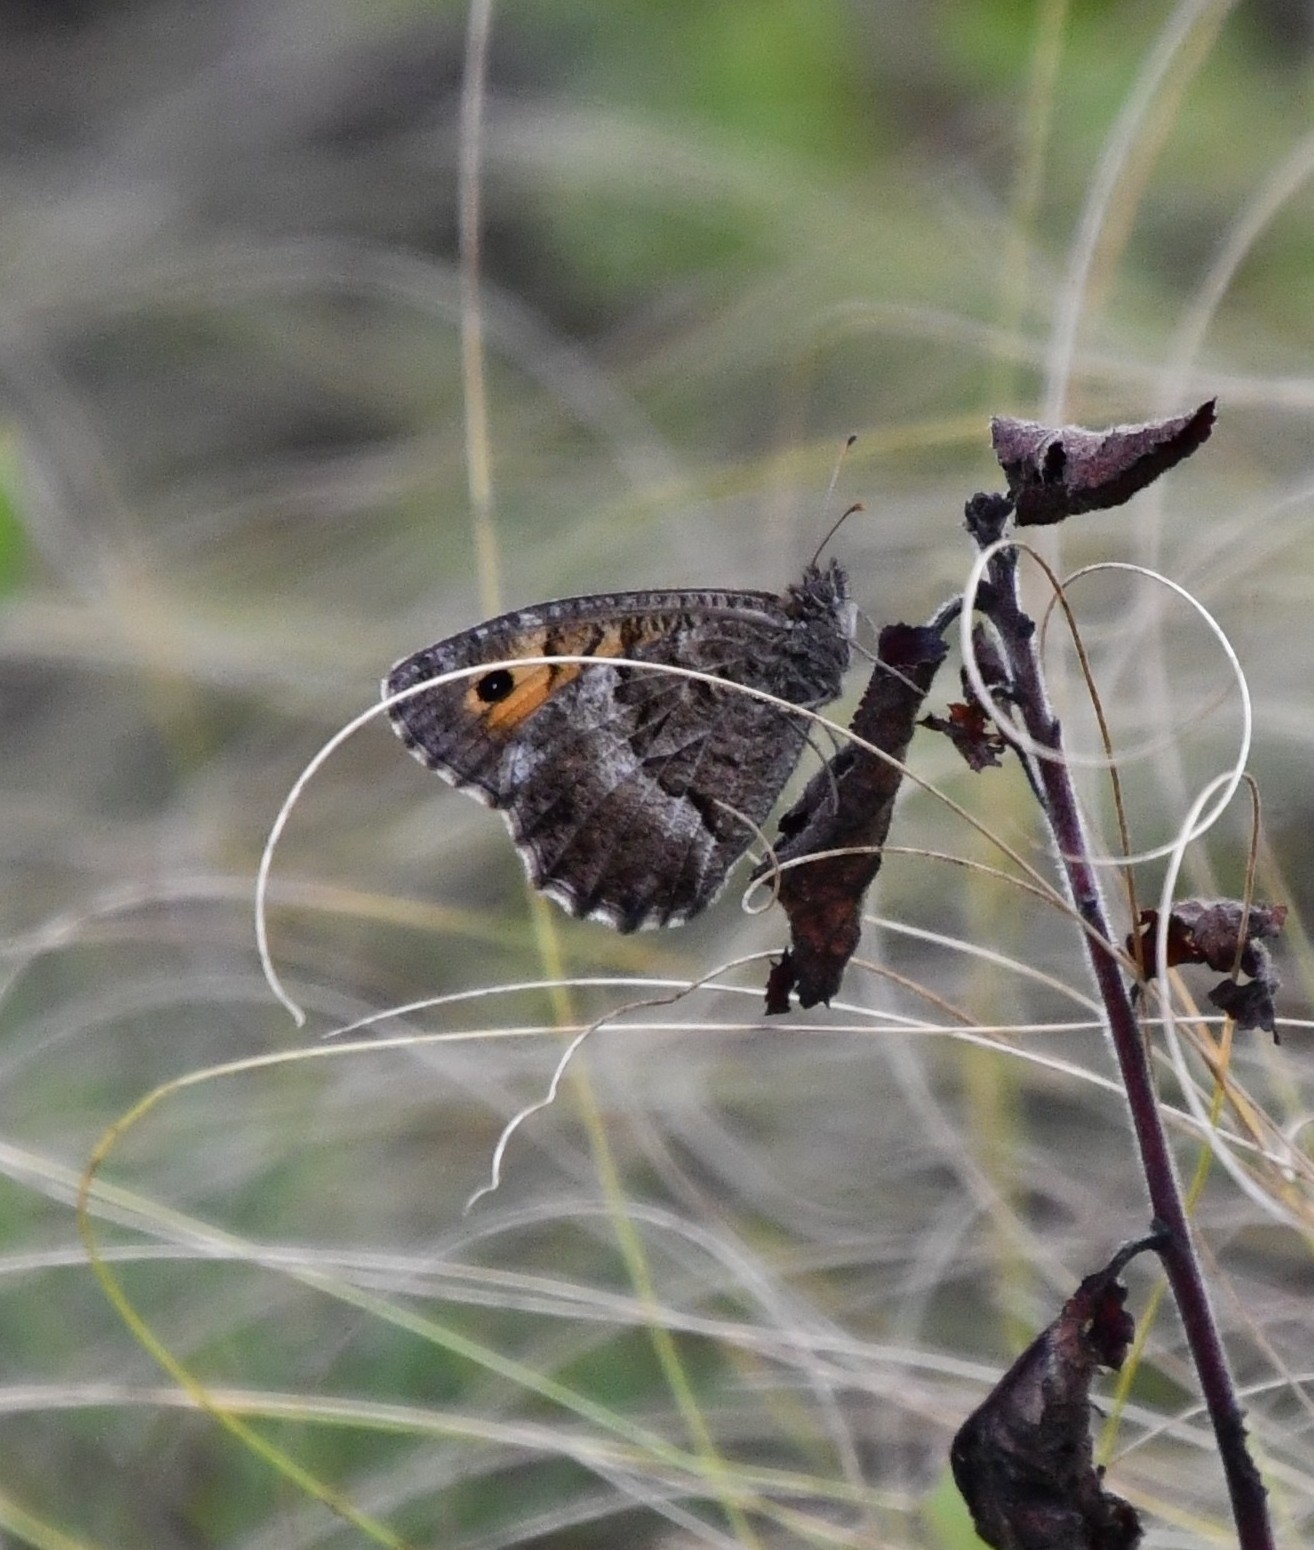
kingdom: Animalia
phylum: Arthropoda
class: Insecta
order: Lepidoptera
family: Nymphalidae
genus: Arethusana
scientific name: Arethusana arethusa
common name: False grayling
